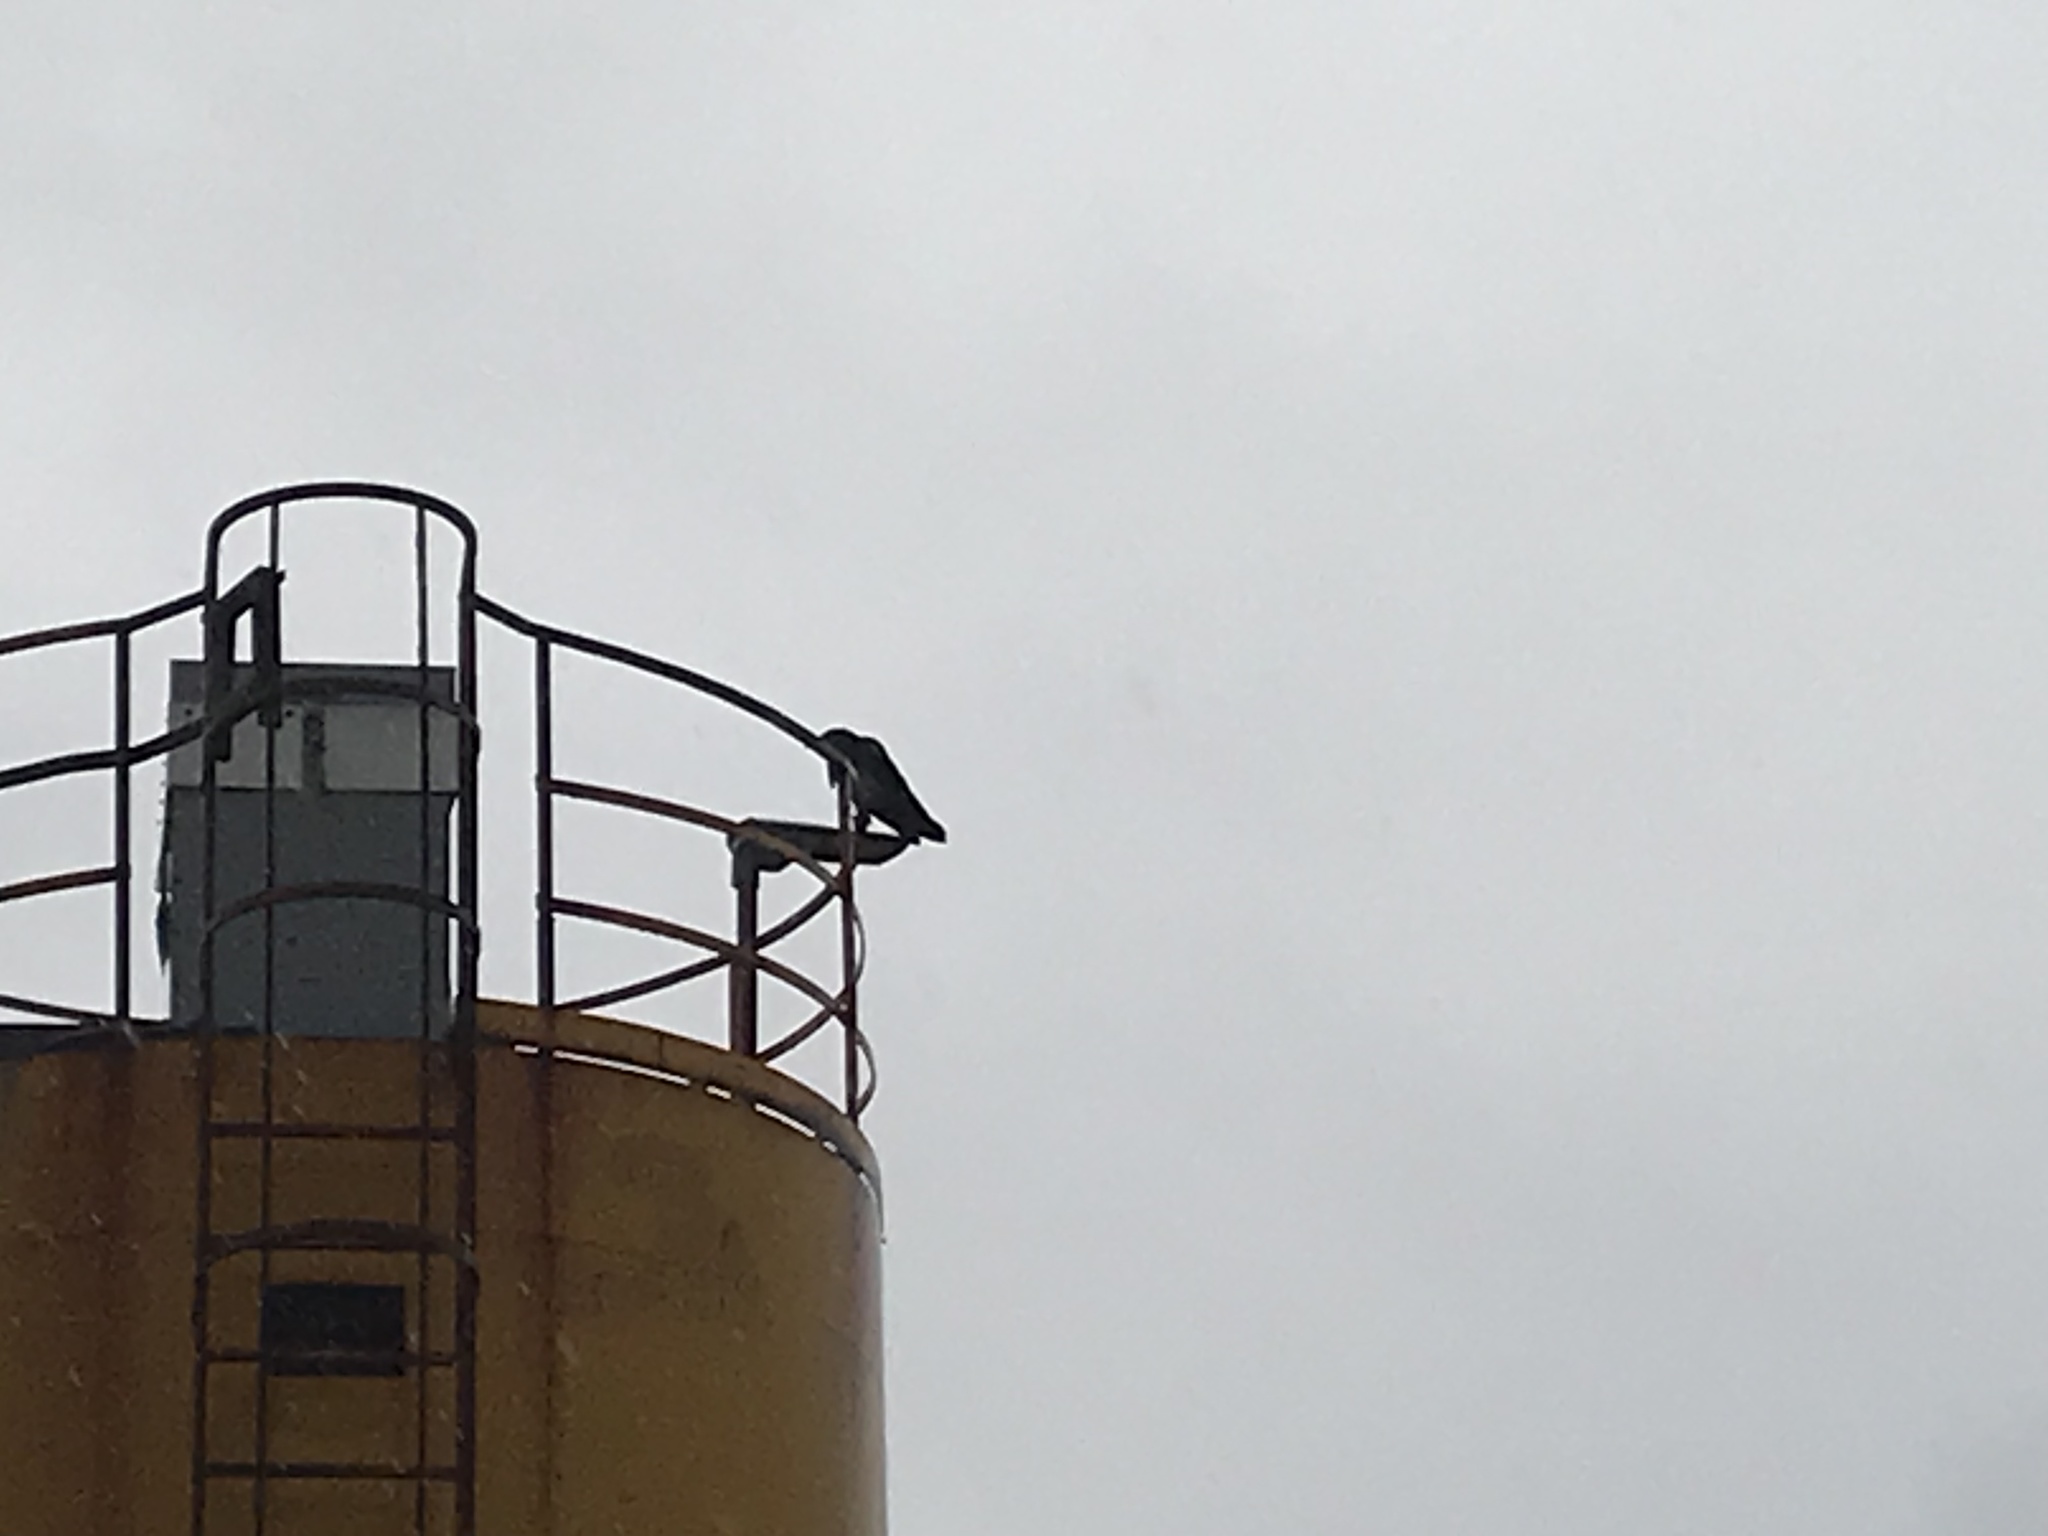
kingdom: Animalia
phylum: Chordata
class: Aves
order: Passeriformes
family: Corvidae
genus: Corvus
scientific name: Corvus corax
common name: Common raven
